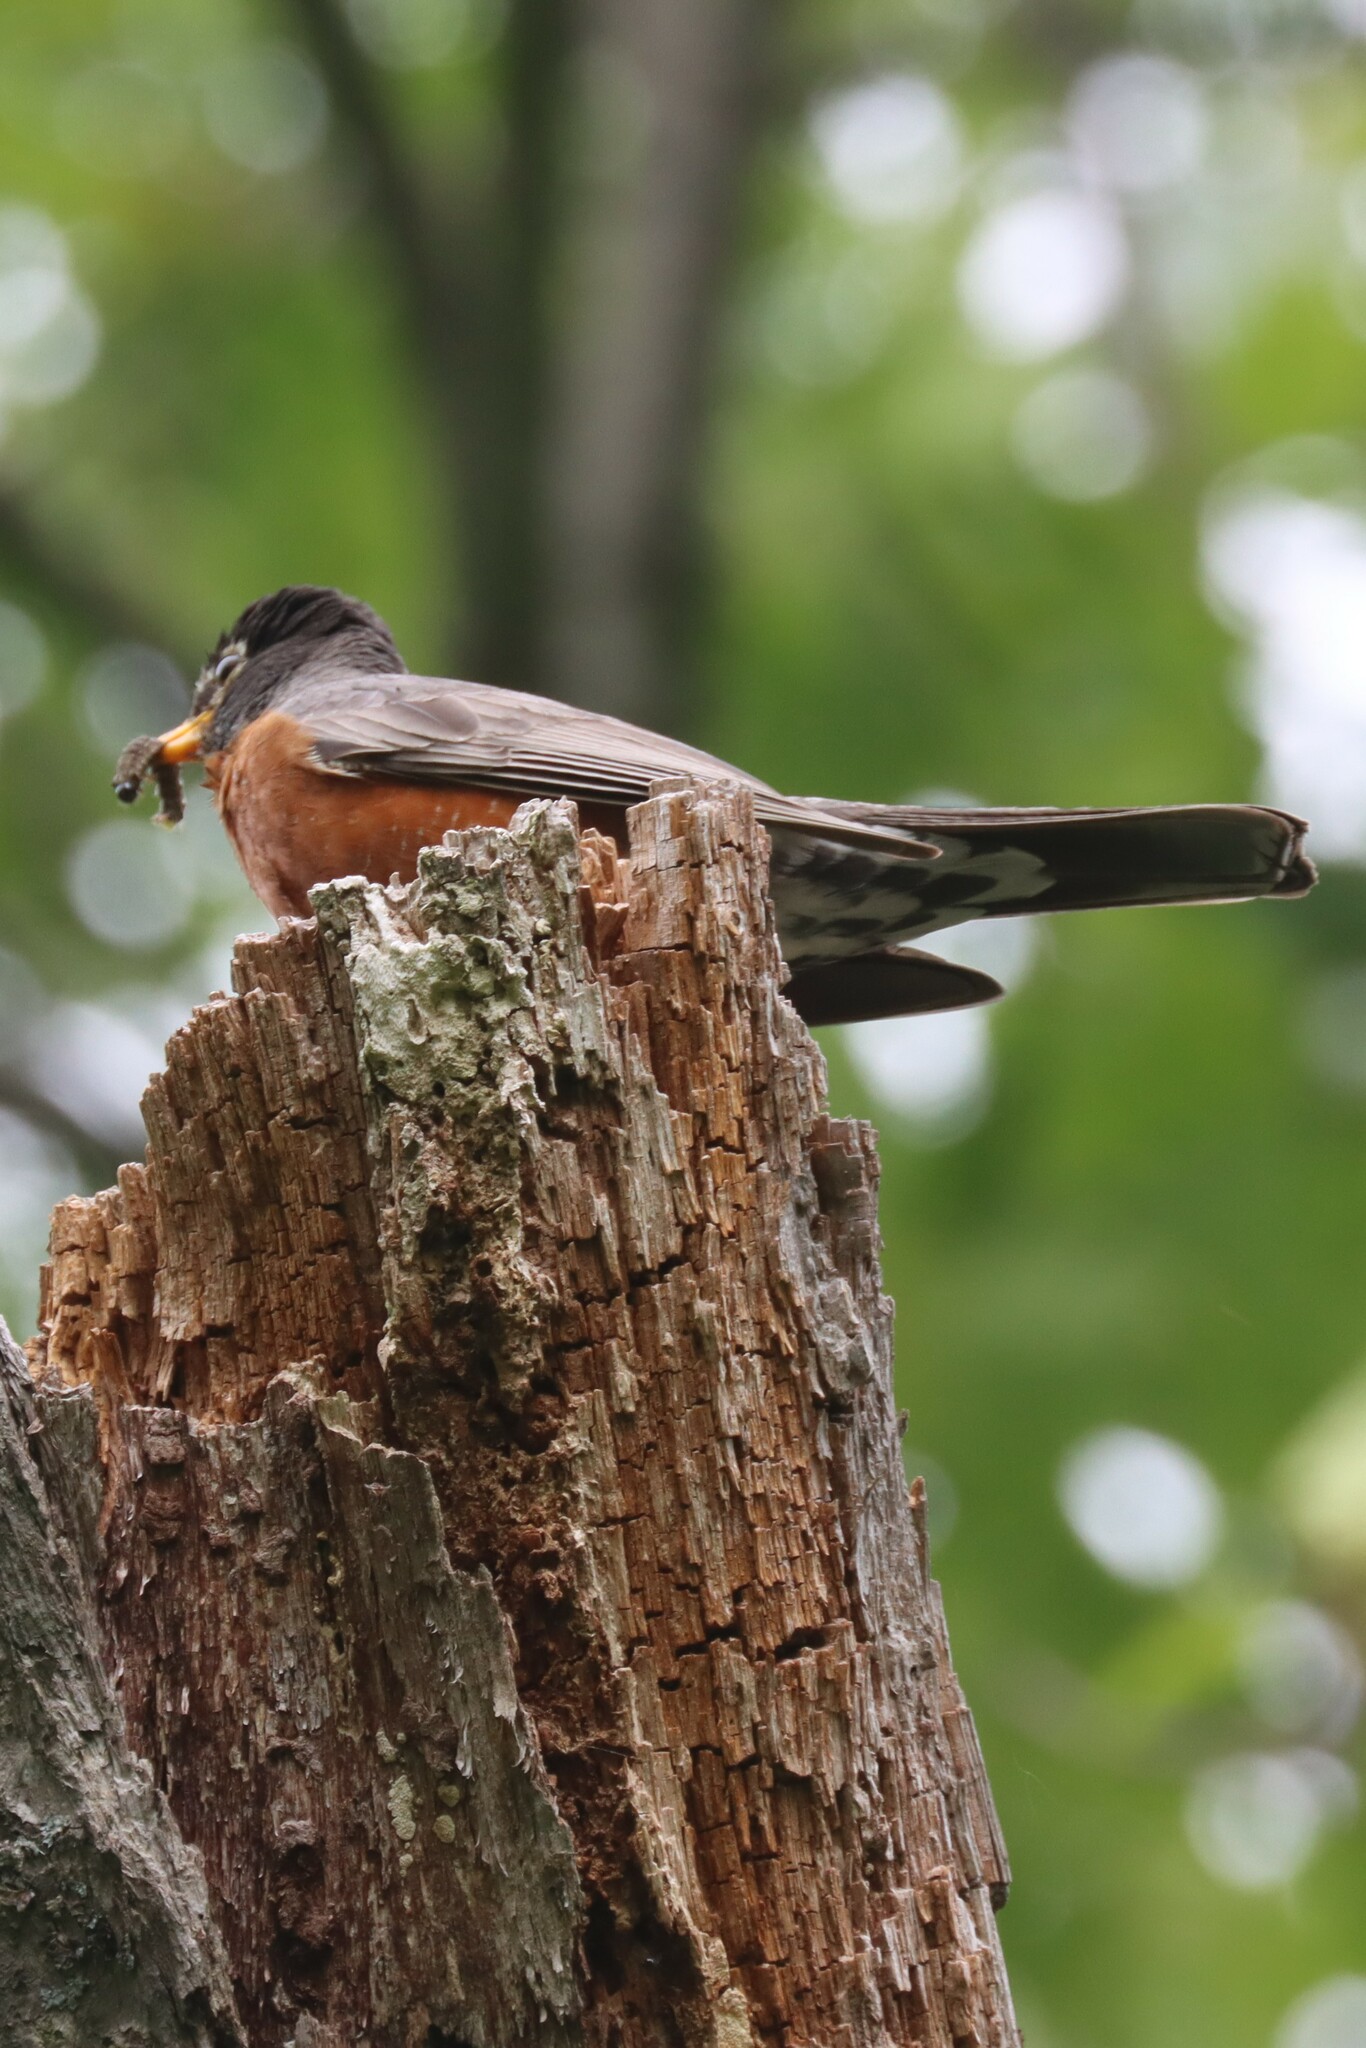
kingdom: Animalia
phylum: Chordata
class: Aves
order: Passeriformes
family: Turdidae
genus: Turdus
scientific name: Turdus migratorius
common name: American robin
